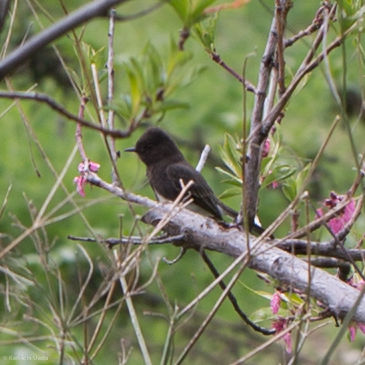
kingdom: Animalia
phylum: Chordata
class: Aves
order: Passeriformes
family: Tyrannidae
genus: Sayornis
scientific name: Sayornis nigricans
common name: Black phoebe
